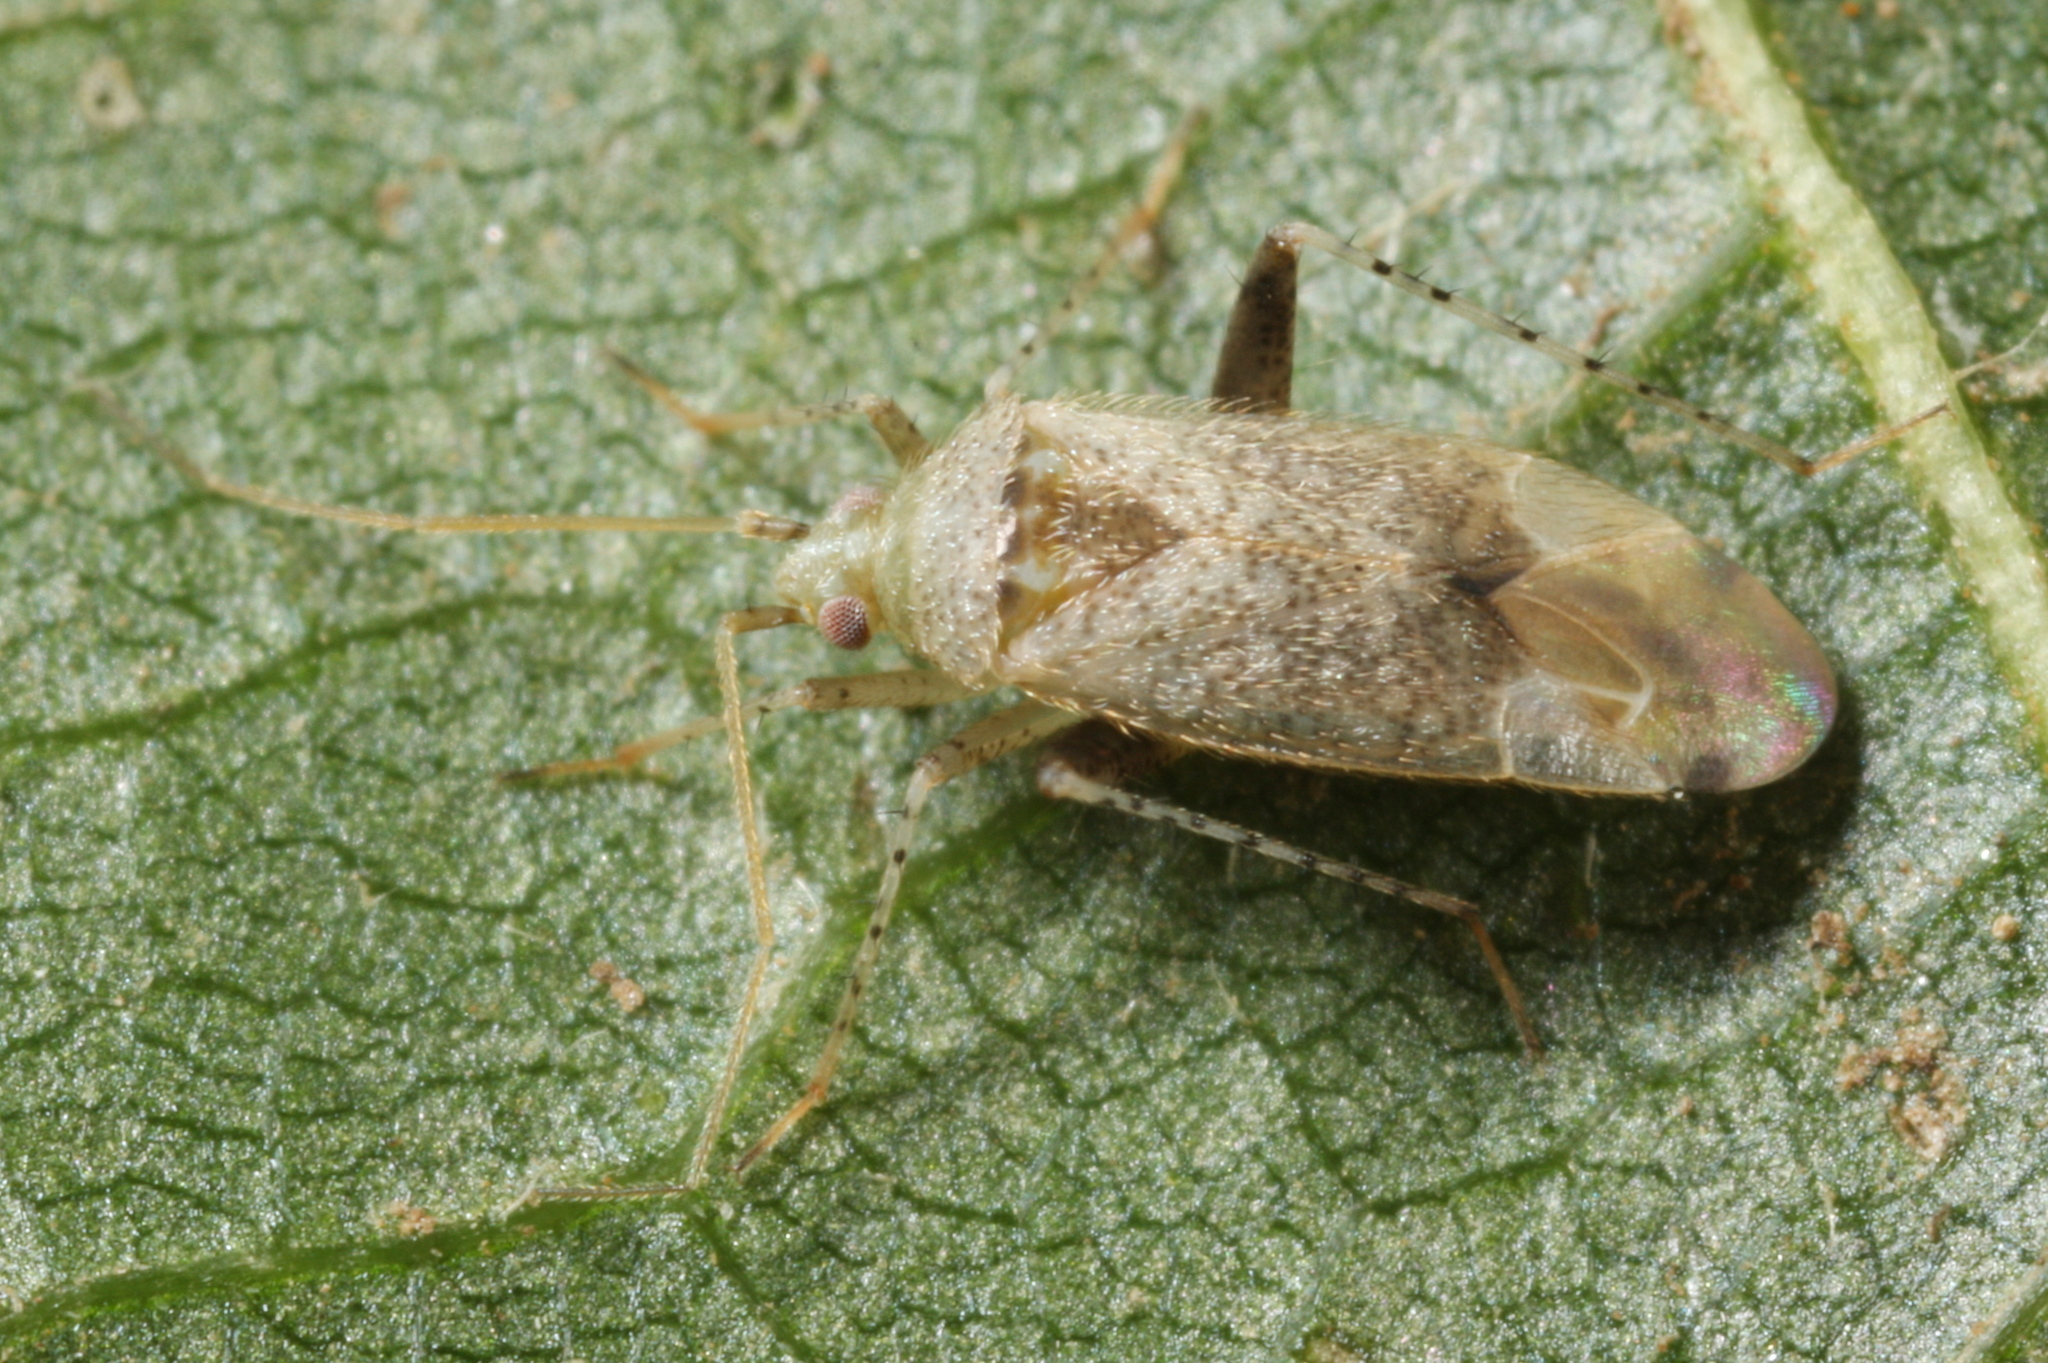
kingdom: Animalia
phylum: Arthropoda
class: Insecta
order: Hemiptera
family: Miridae
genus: Compsidolon
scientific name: Compsidolon salicellum
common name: Plant bug
